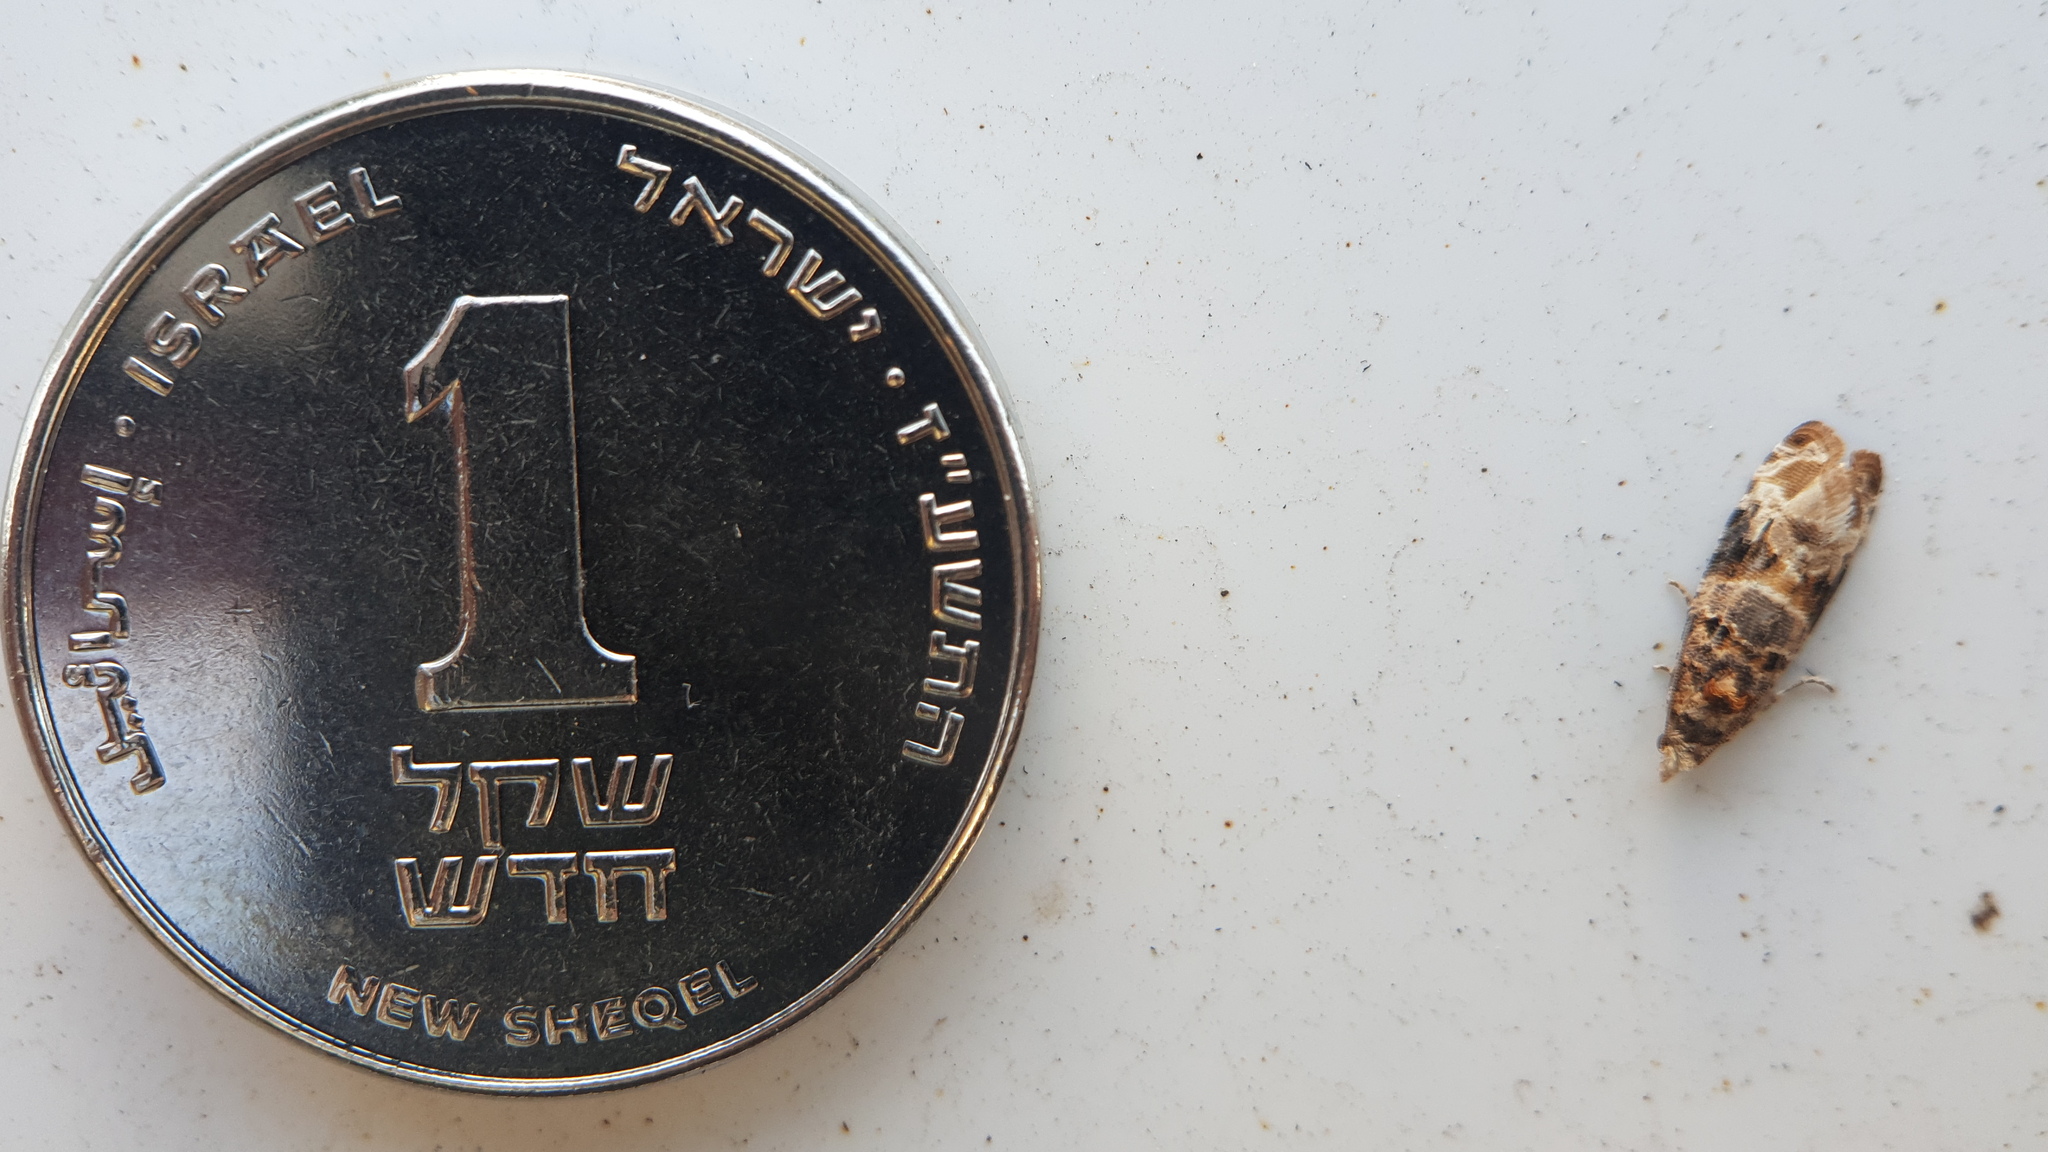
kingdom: Animalia
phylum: Arthropoda
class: Insecta
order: Lepidoptera
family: Tortricidae
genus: Lobesia
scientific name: Lobesia botrana
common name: European vine moth
